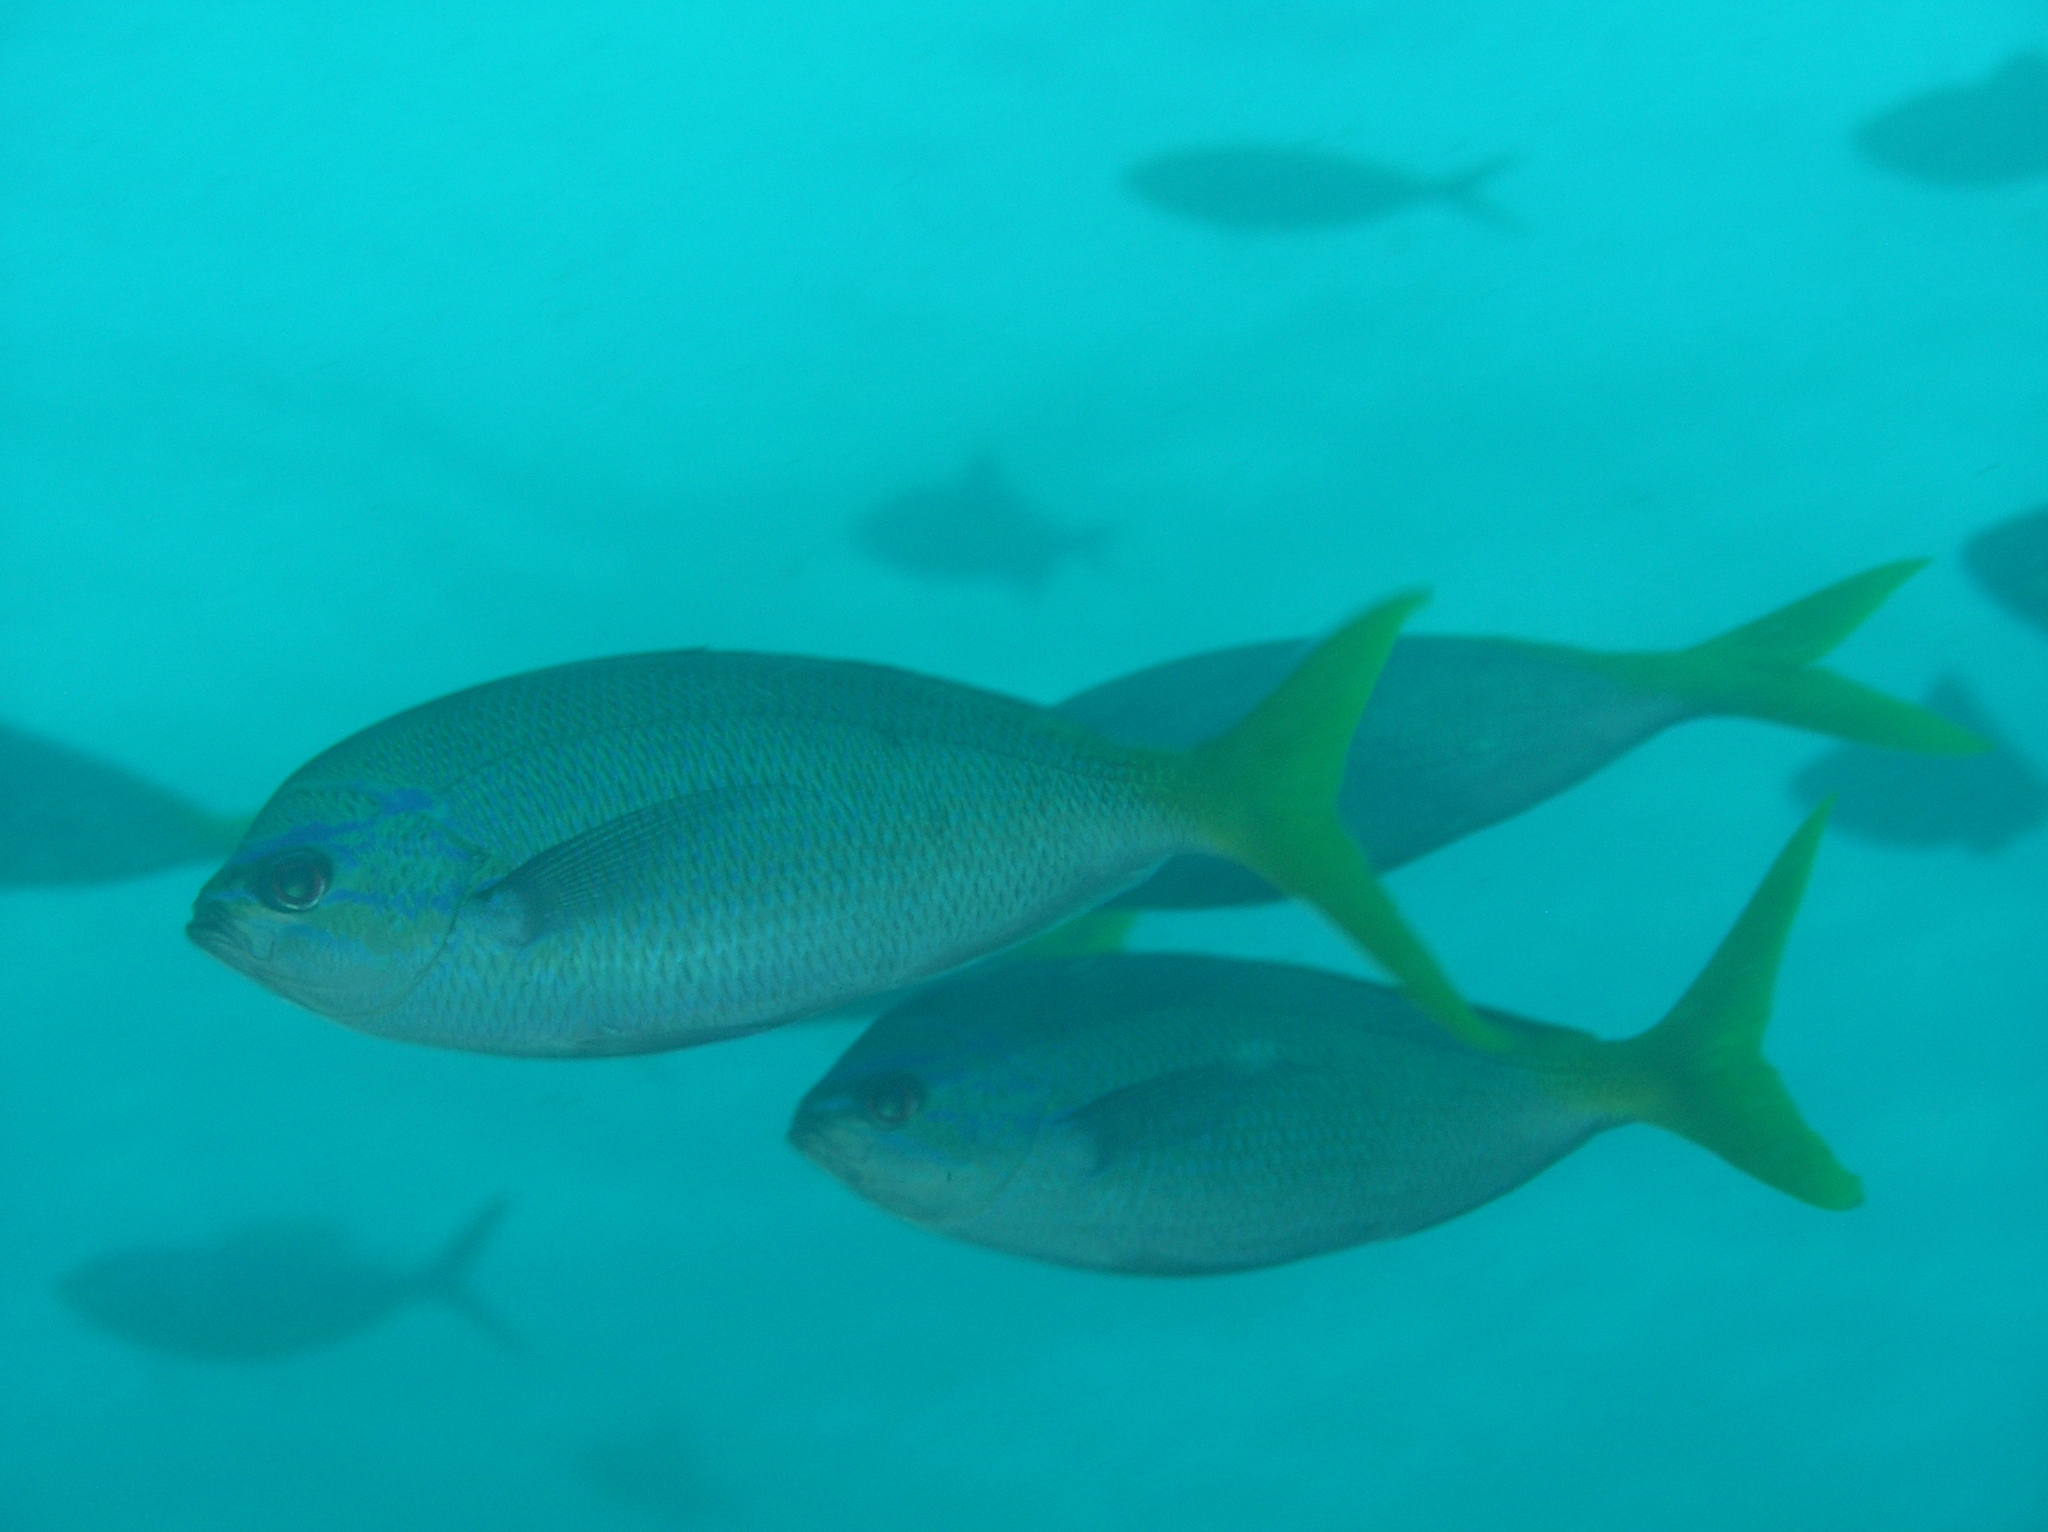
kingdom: Animalia
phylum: Chordata
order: Perciformes
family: Caesionidae
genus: Caesio
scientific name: Caesio cuning
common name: Red-bellied fusilier
